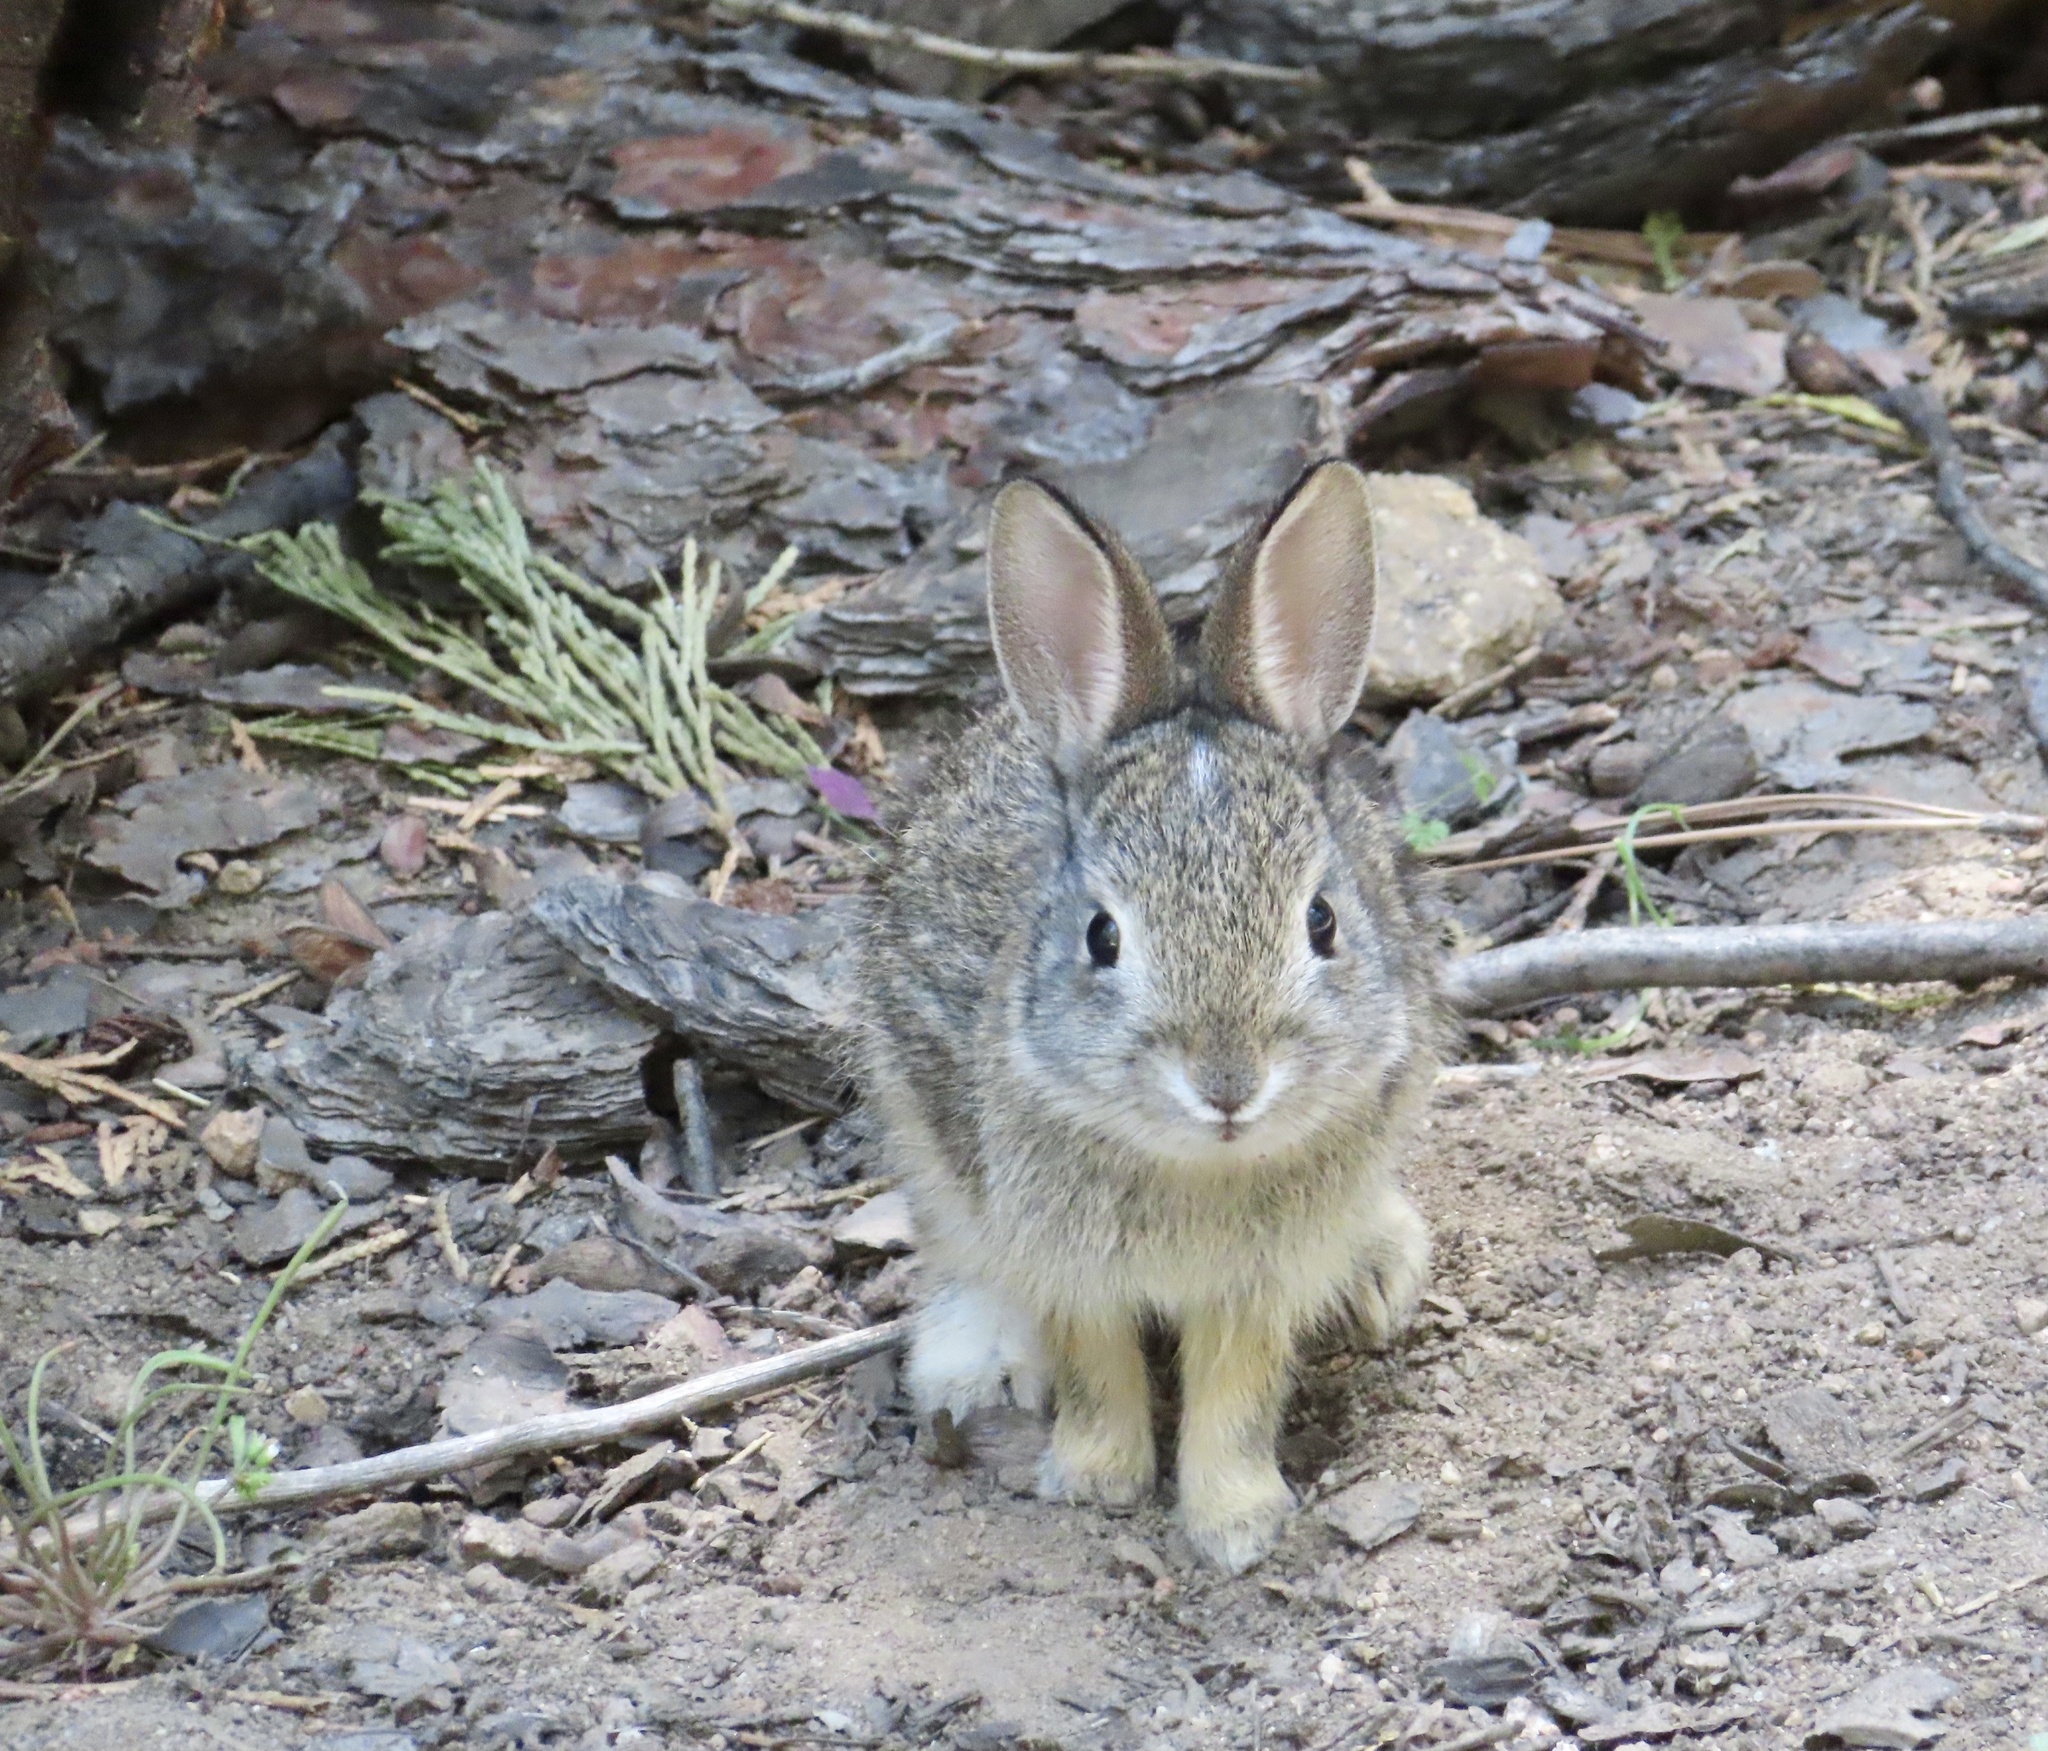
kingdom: Animalia
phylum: Chordata
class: Mammalia
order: Lagomorpha
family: Leporidae
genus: Sylvilagus
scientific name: Sylvilagus audubonii
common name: Desert cottontail
